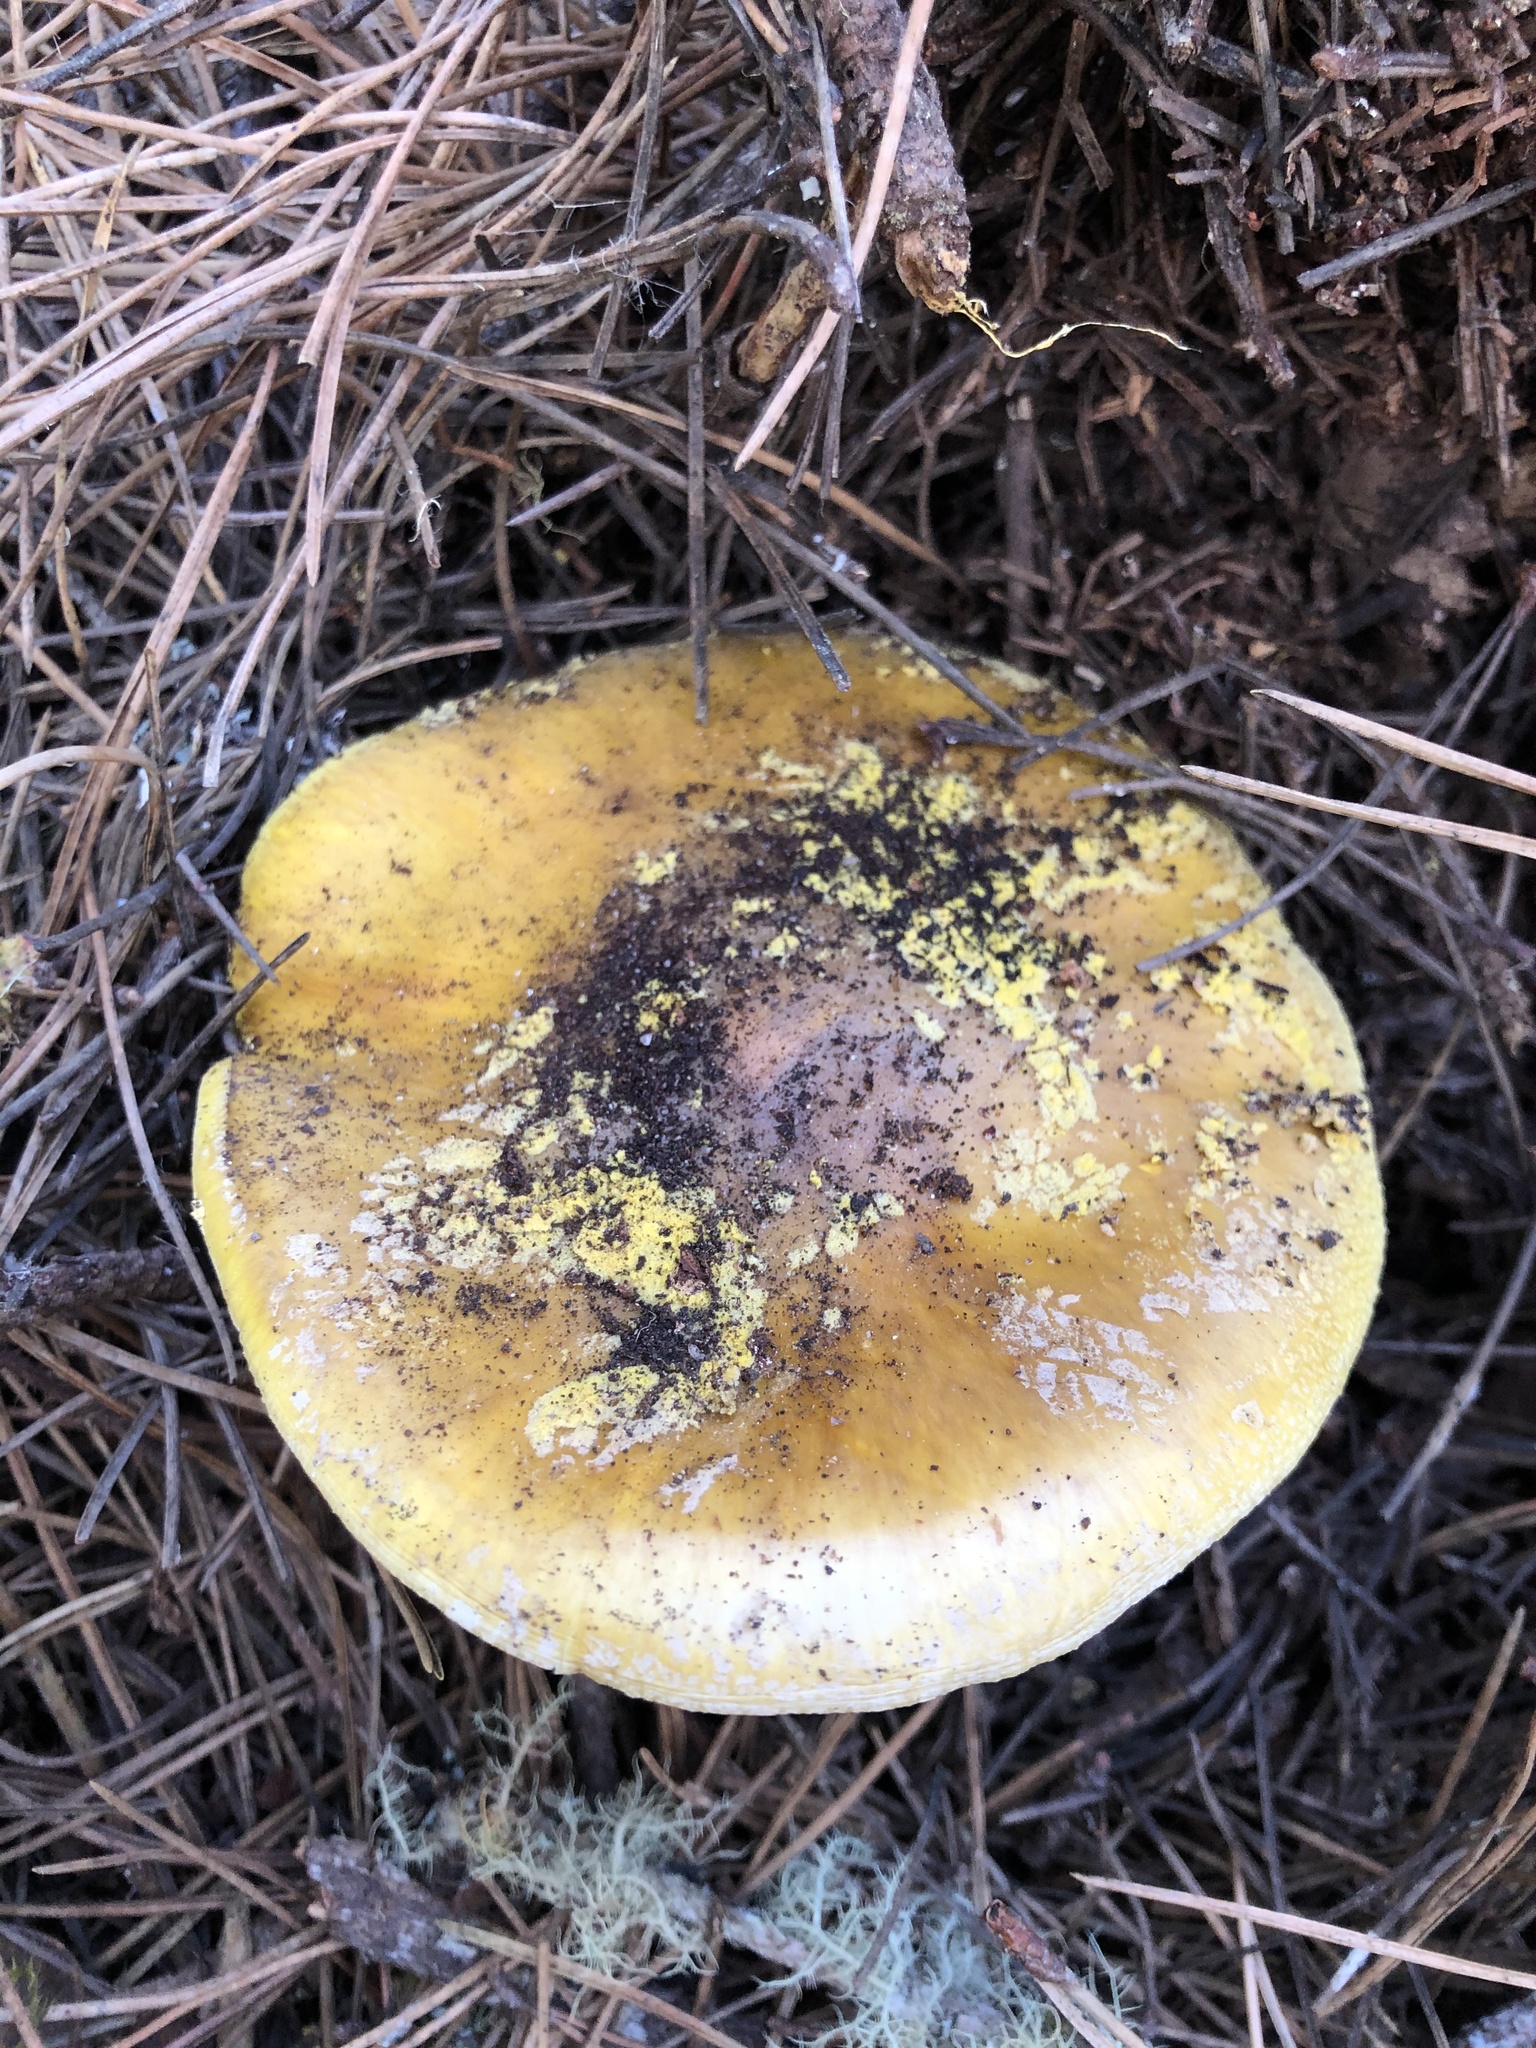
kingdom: Fungi
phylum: Basidiomycota
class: Agaricomycetes
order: Agaricales
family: Amanitaceae
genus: Amanita
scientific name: Amanita augusta
